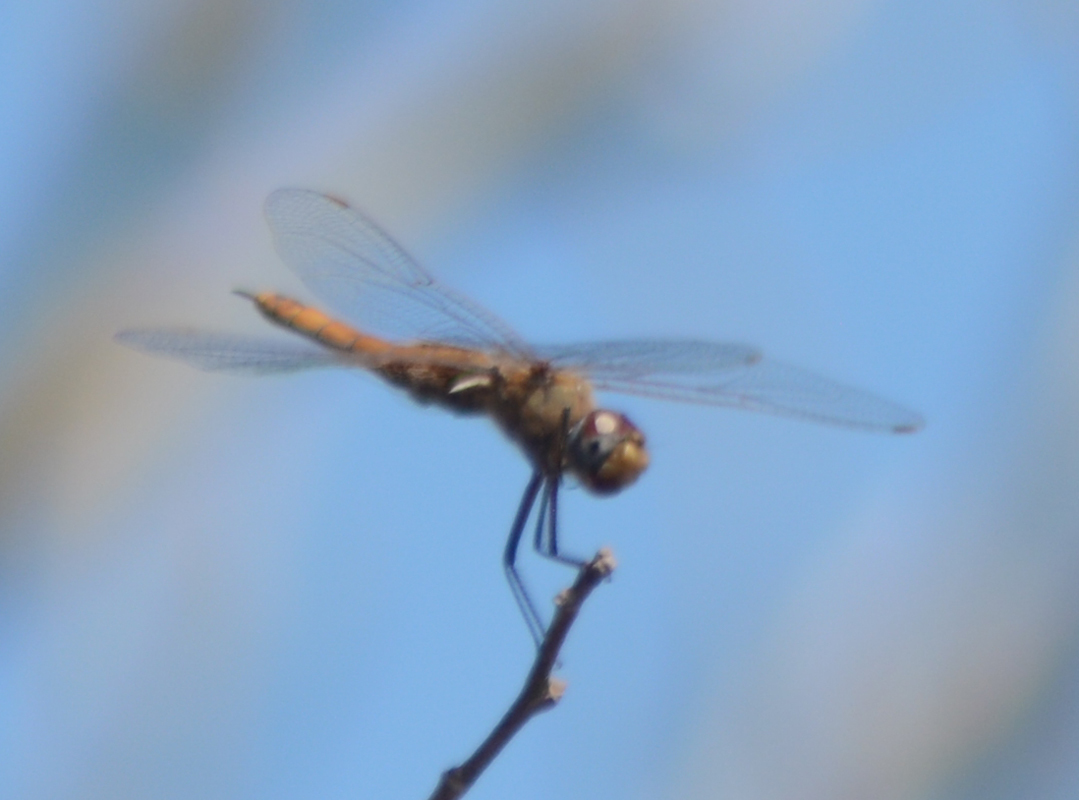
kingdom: Animalia
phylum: Arthropoda
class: Insecta
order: Odonata
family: Libellulidae
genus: Tramea
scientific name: Tramea onusta
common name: Red saddlebags
